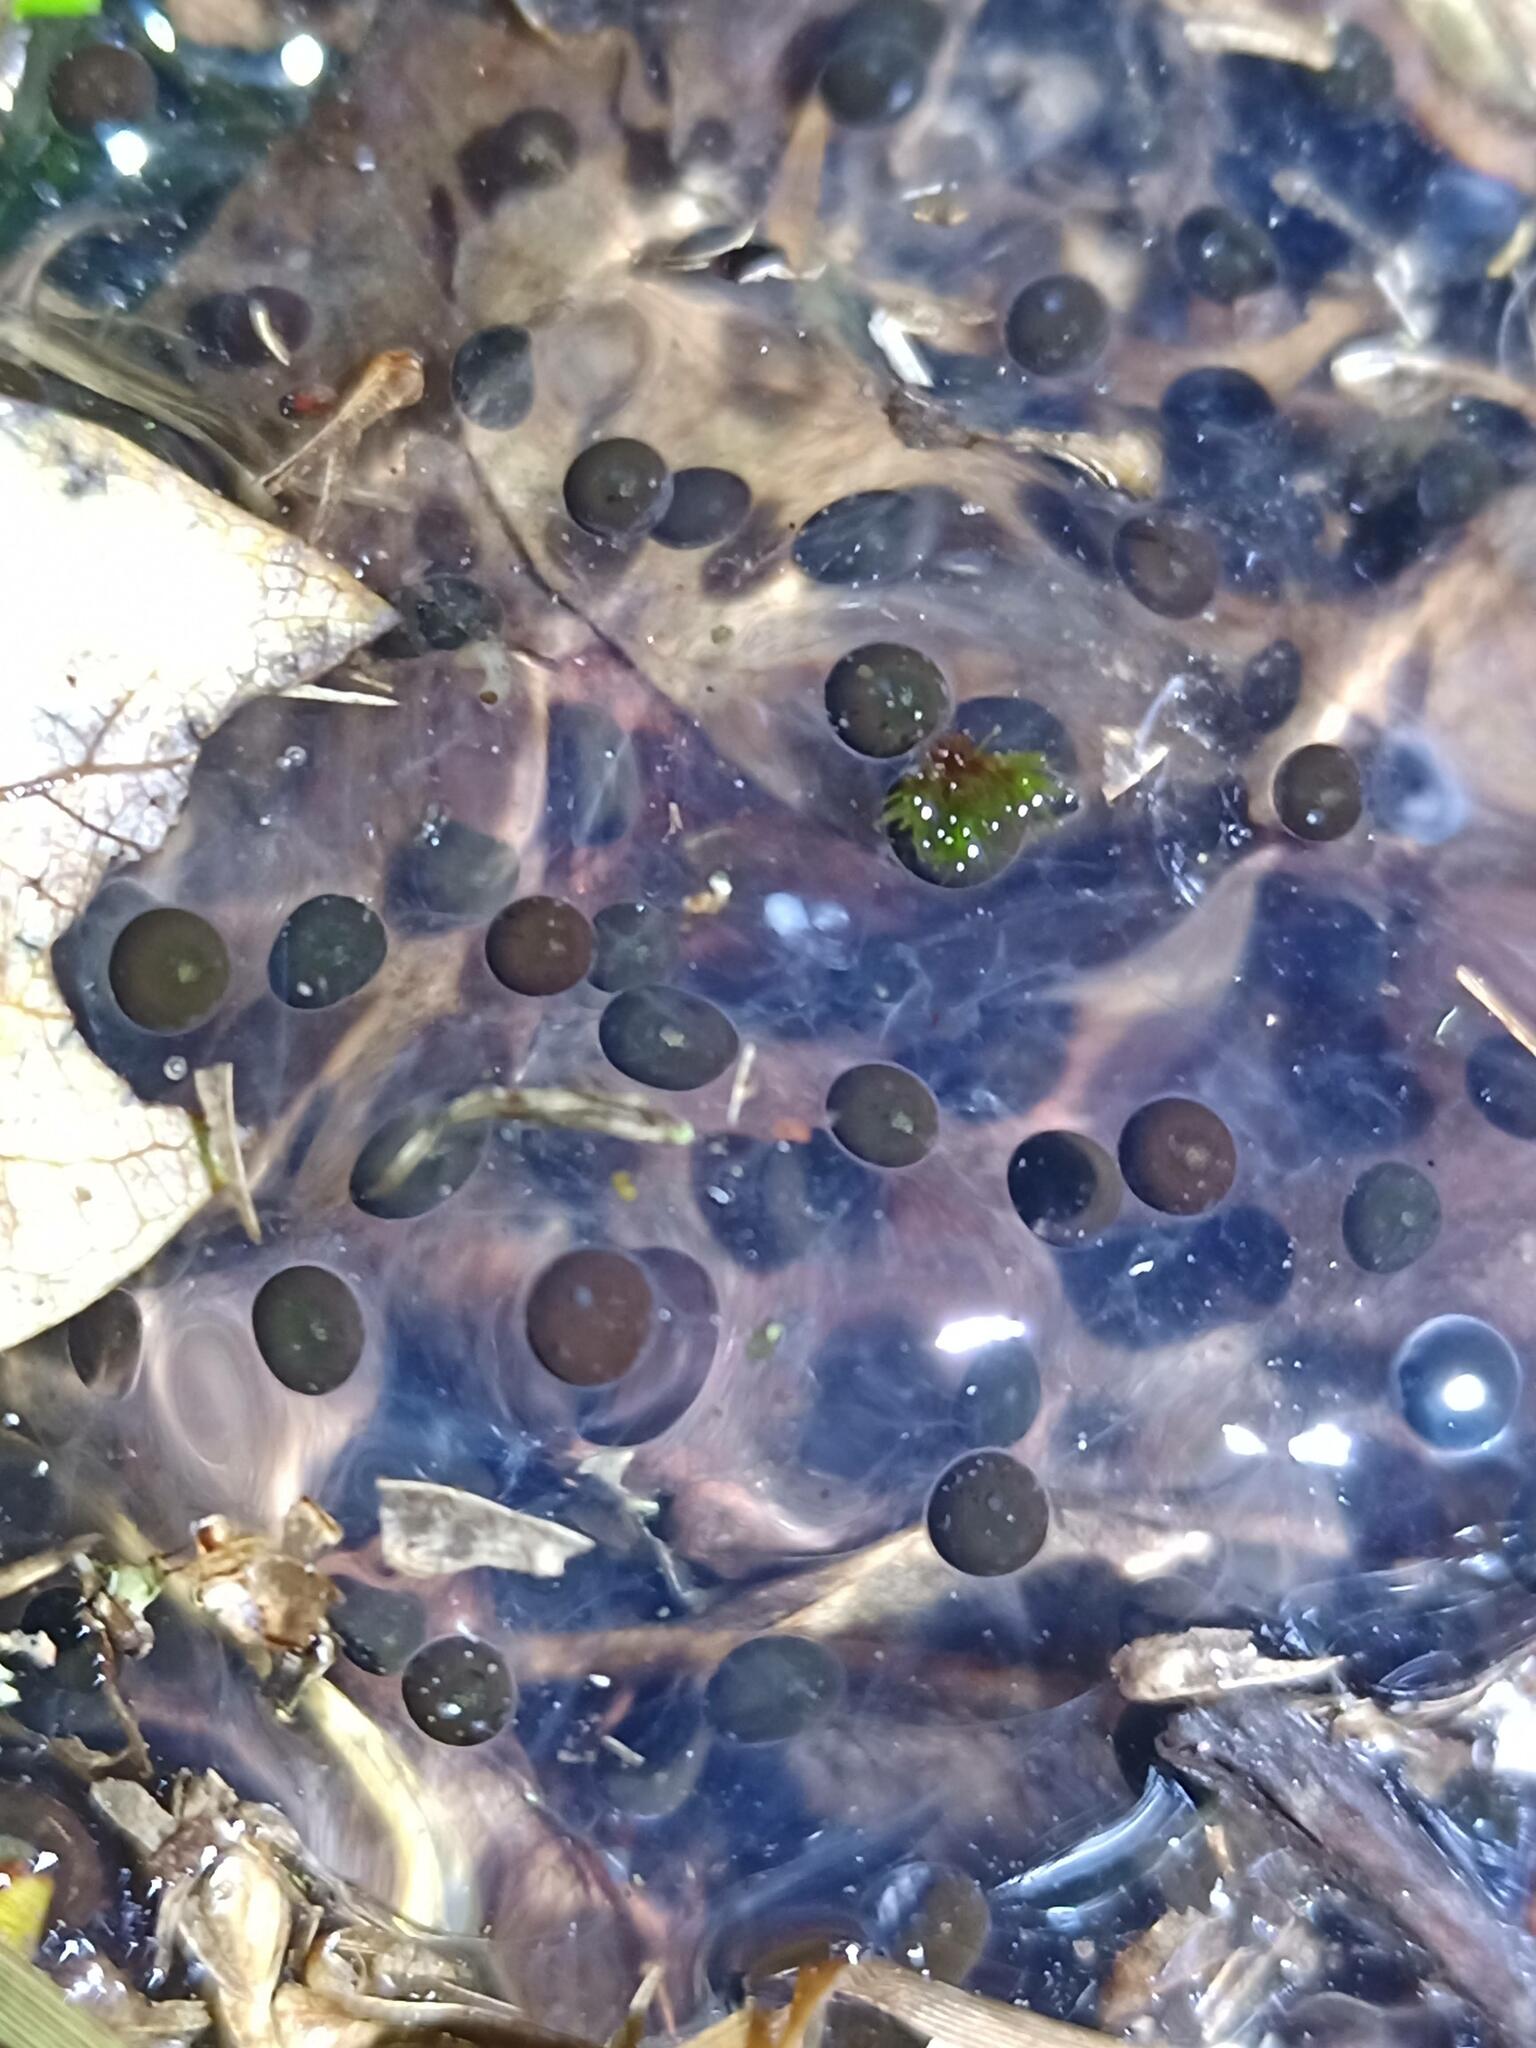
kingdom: Animalia
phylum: Chordata
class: Amphibia
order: Anura
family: Ranidae
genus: Rana
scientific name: Rana temporaria
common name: Common frog
